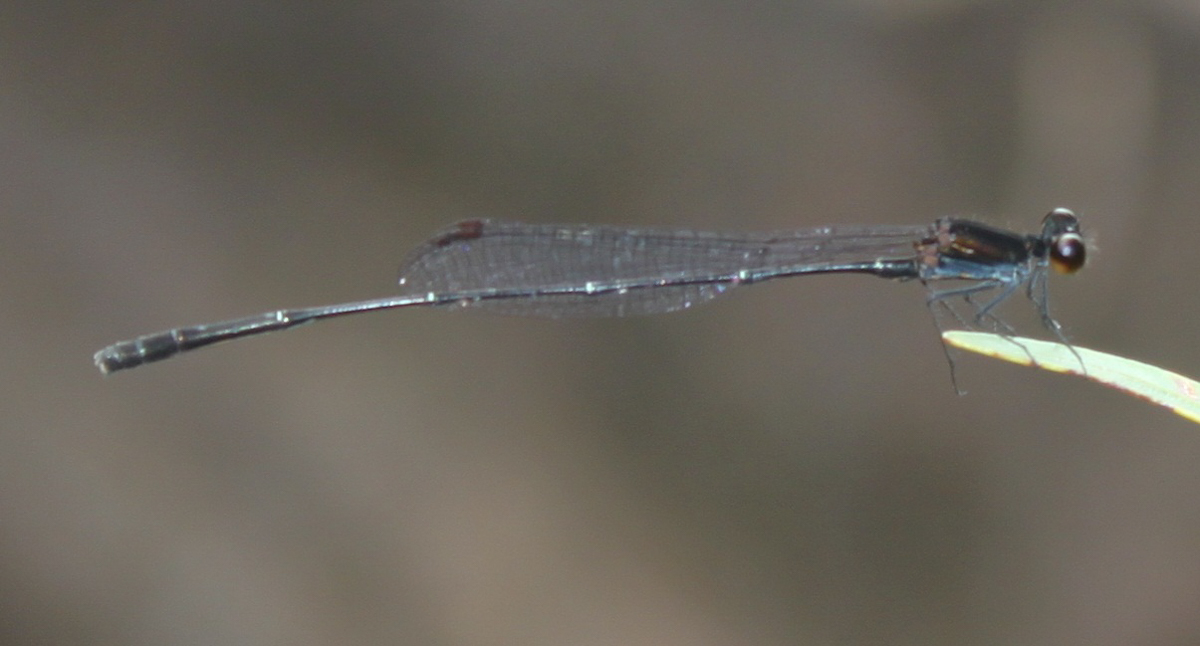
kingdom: Animalia
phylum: Arthropoda
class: Insecta
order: Odonata
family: Platycnemididae
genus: Prodasineura
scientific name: Prodasineura autumnalis
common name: Black threadtail
